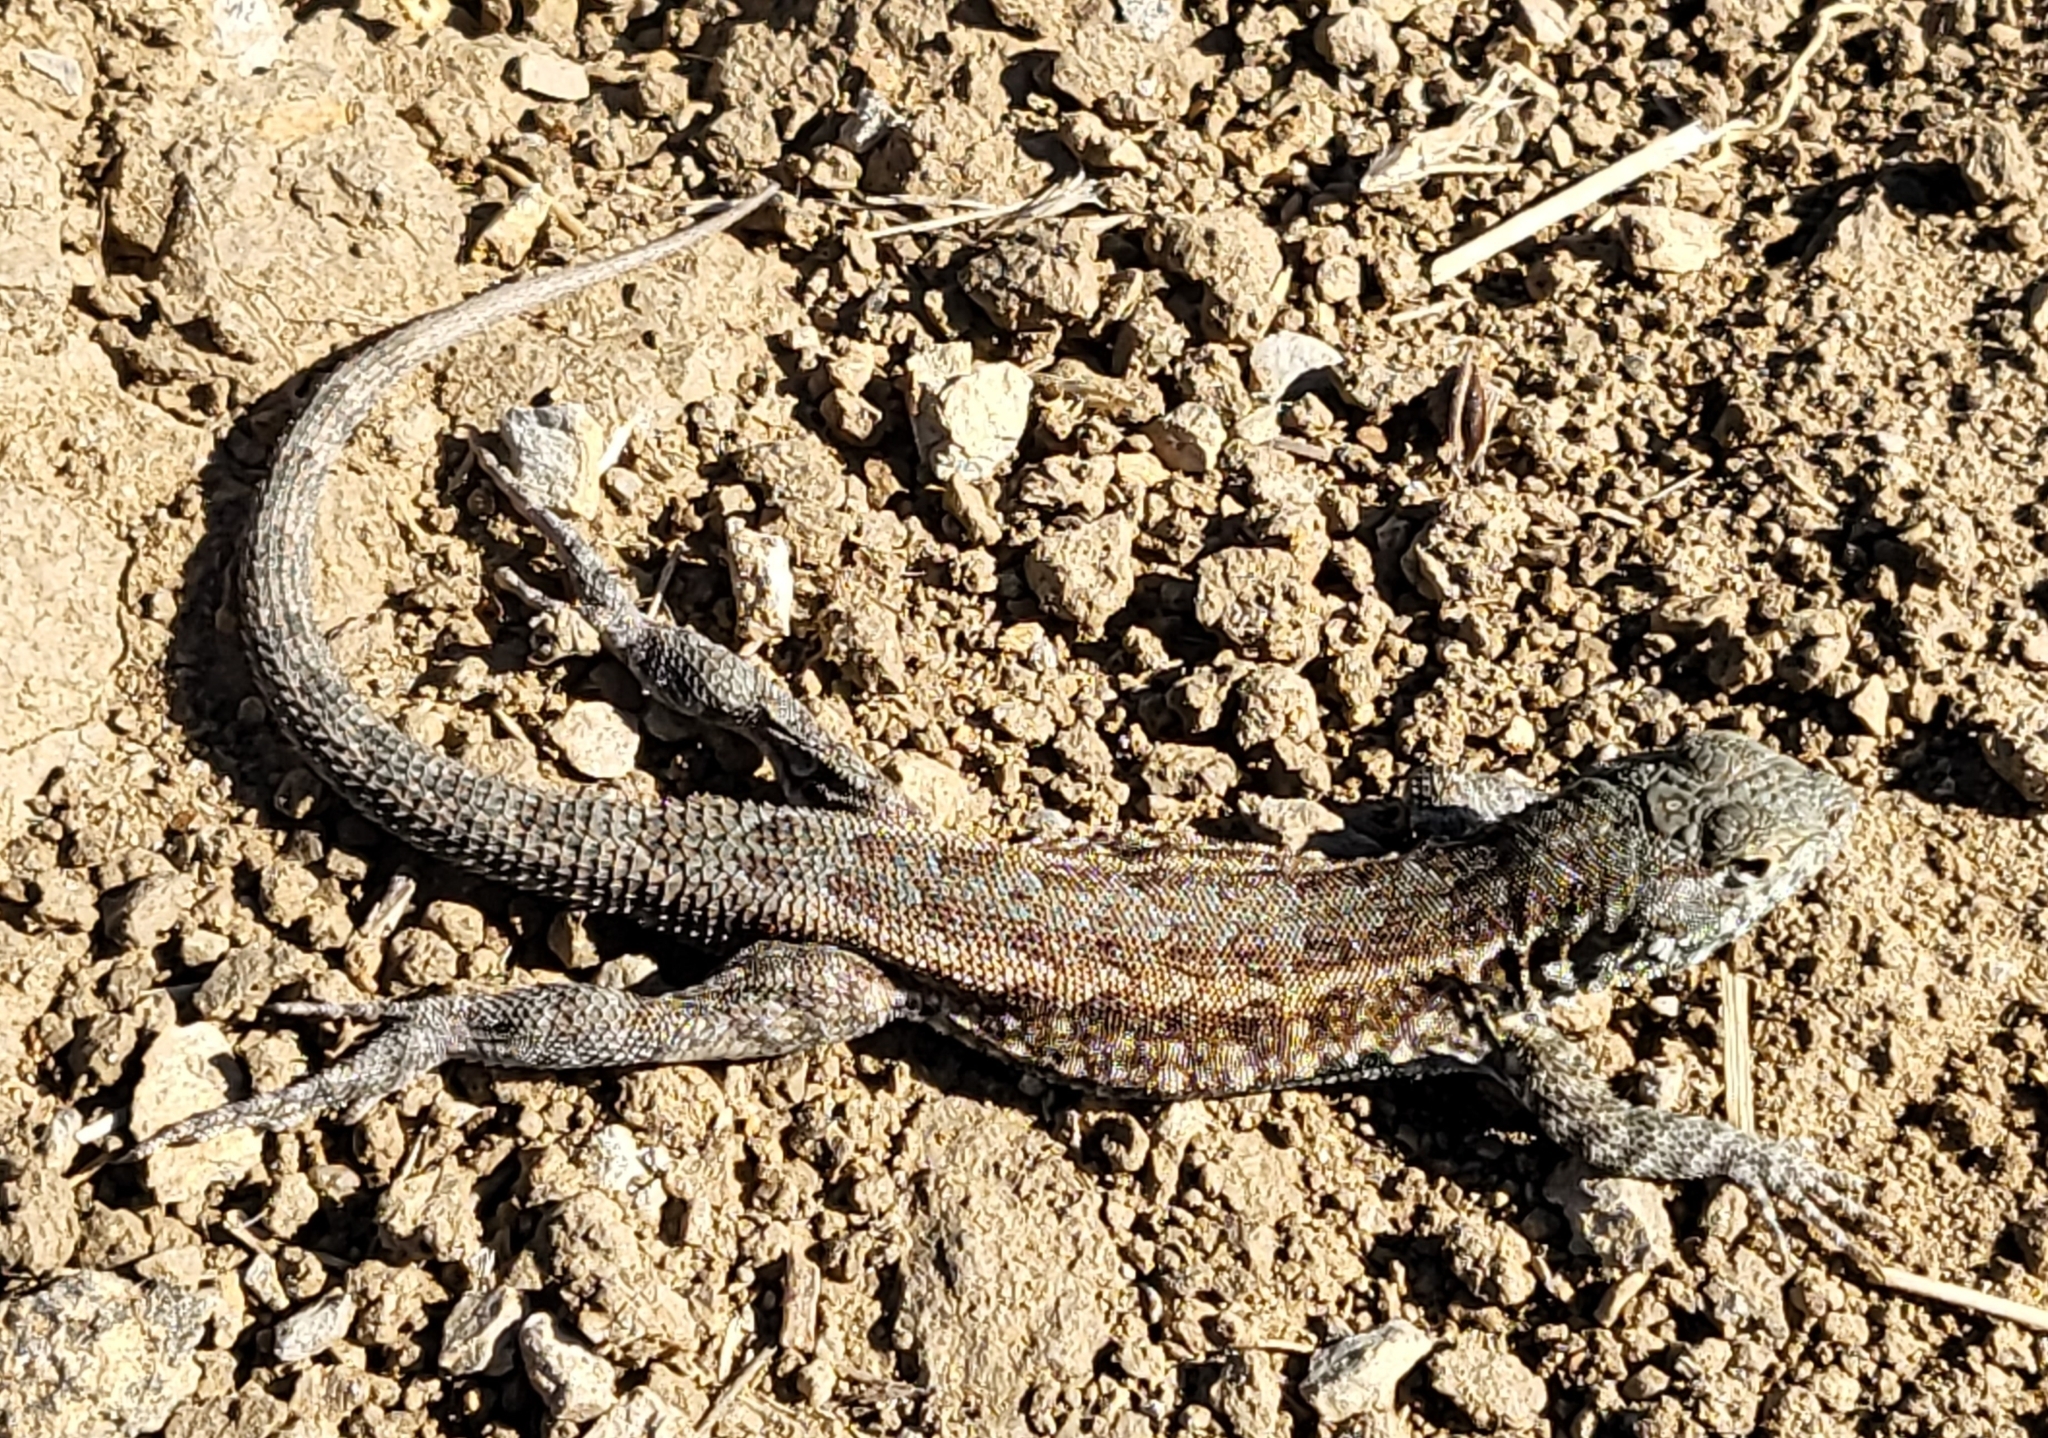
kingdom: Animalia
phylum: Chordata
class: Squamata
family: Phrynosomatidae
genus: Uta
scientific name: Uta stansburiana
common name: Side-blotched lizard
